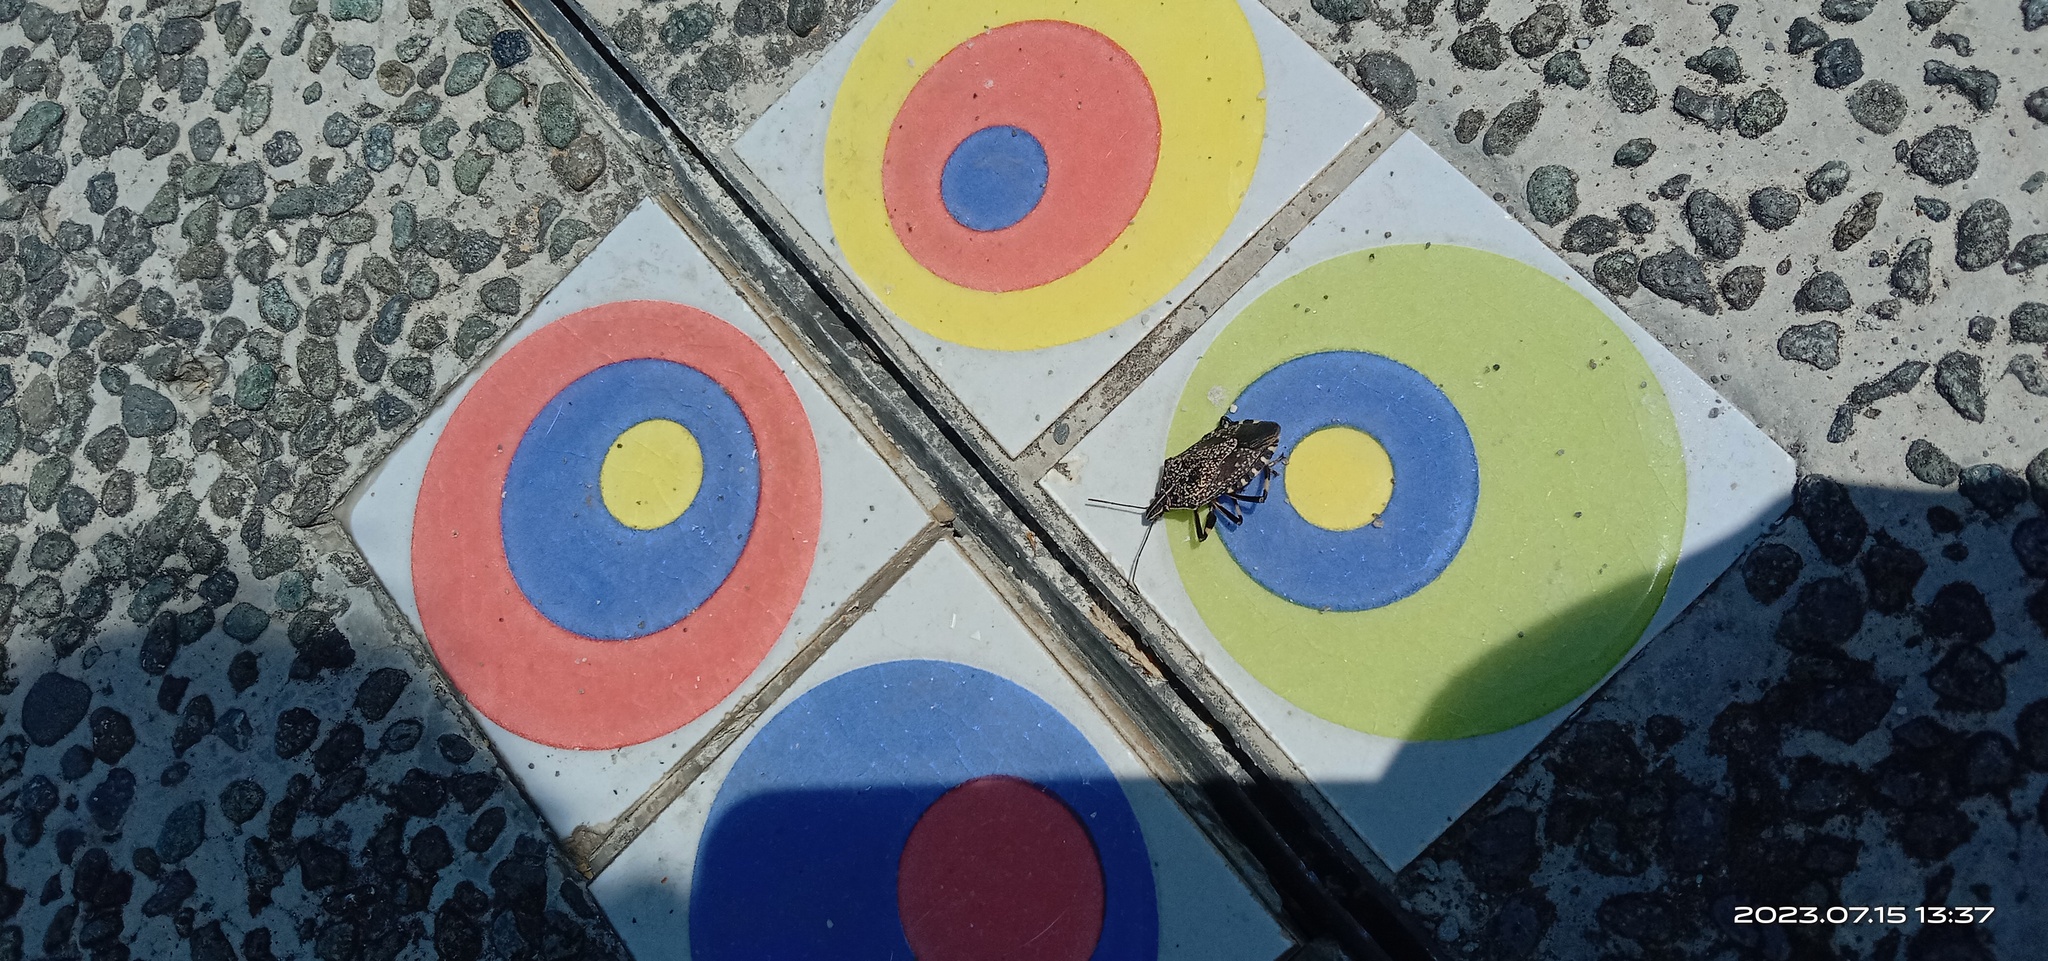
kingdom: Animalia
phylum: Arthropoda
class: Insecta
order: Hemiptera
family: Pentatomidae
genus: Erthesina
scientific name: Erthesina fullo
